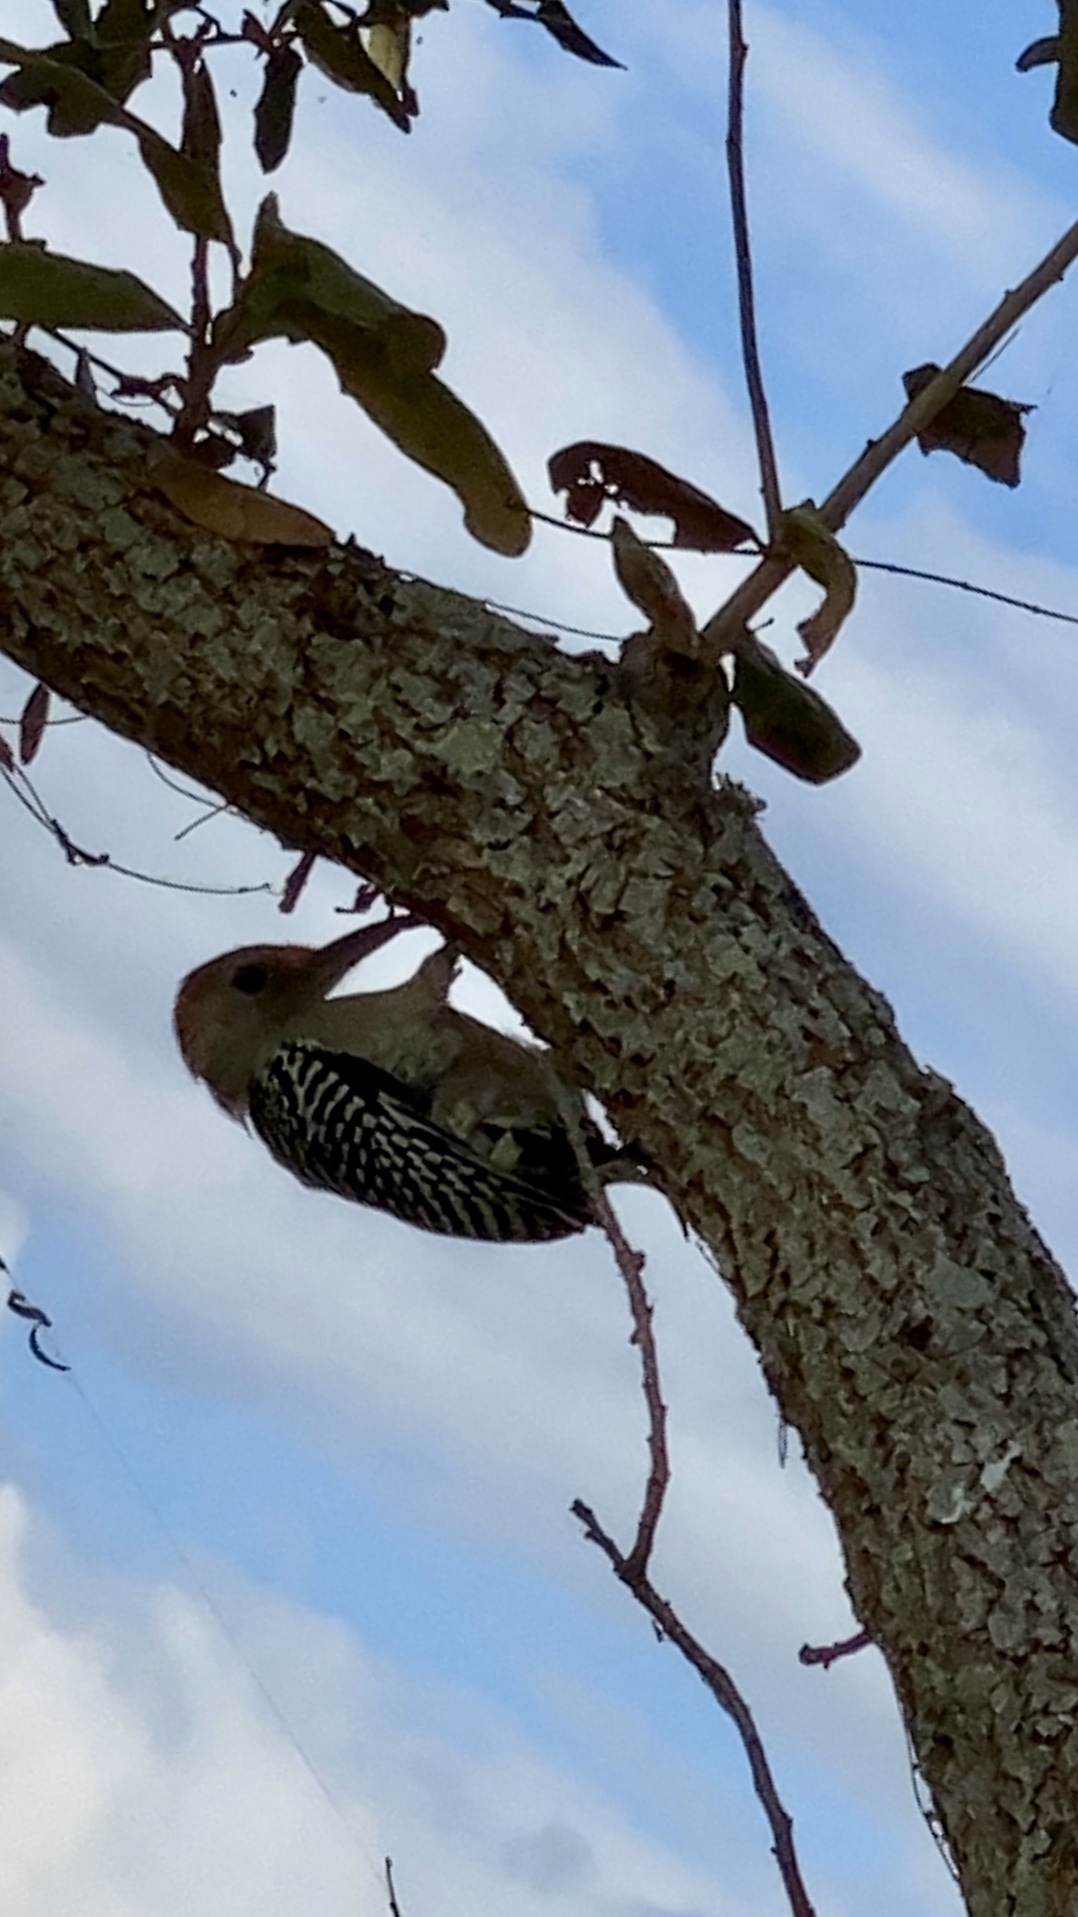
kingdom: Animalia
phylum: Chordata
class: Aves
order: Piciformes
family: Picidae
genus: Melanerpes
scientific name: Melanerpes carolinus
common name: Red-bellied woodpecker
